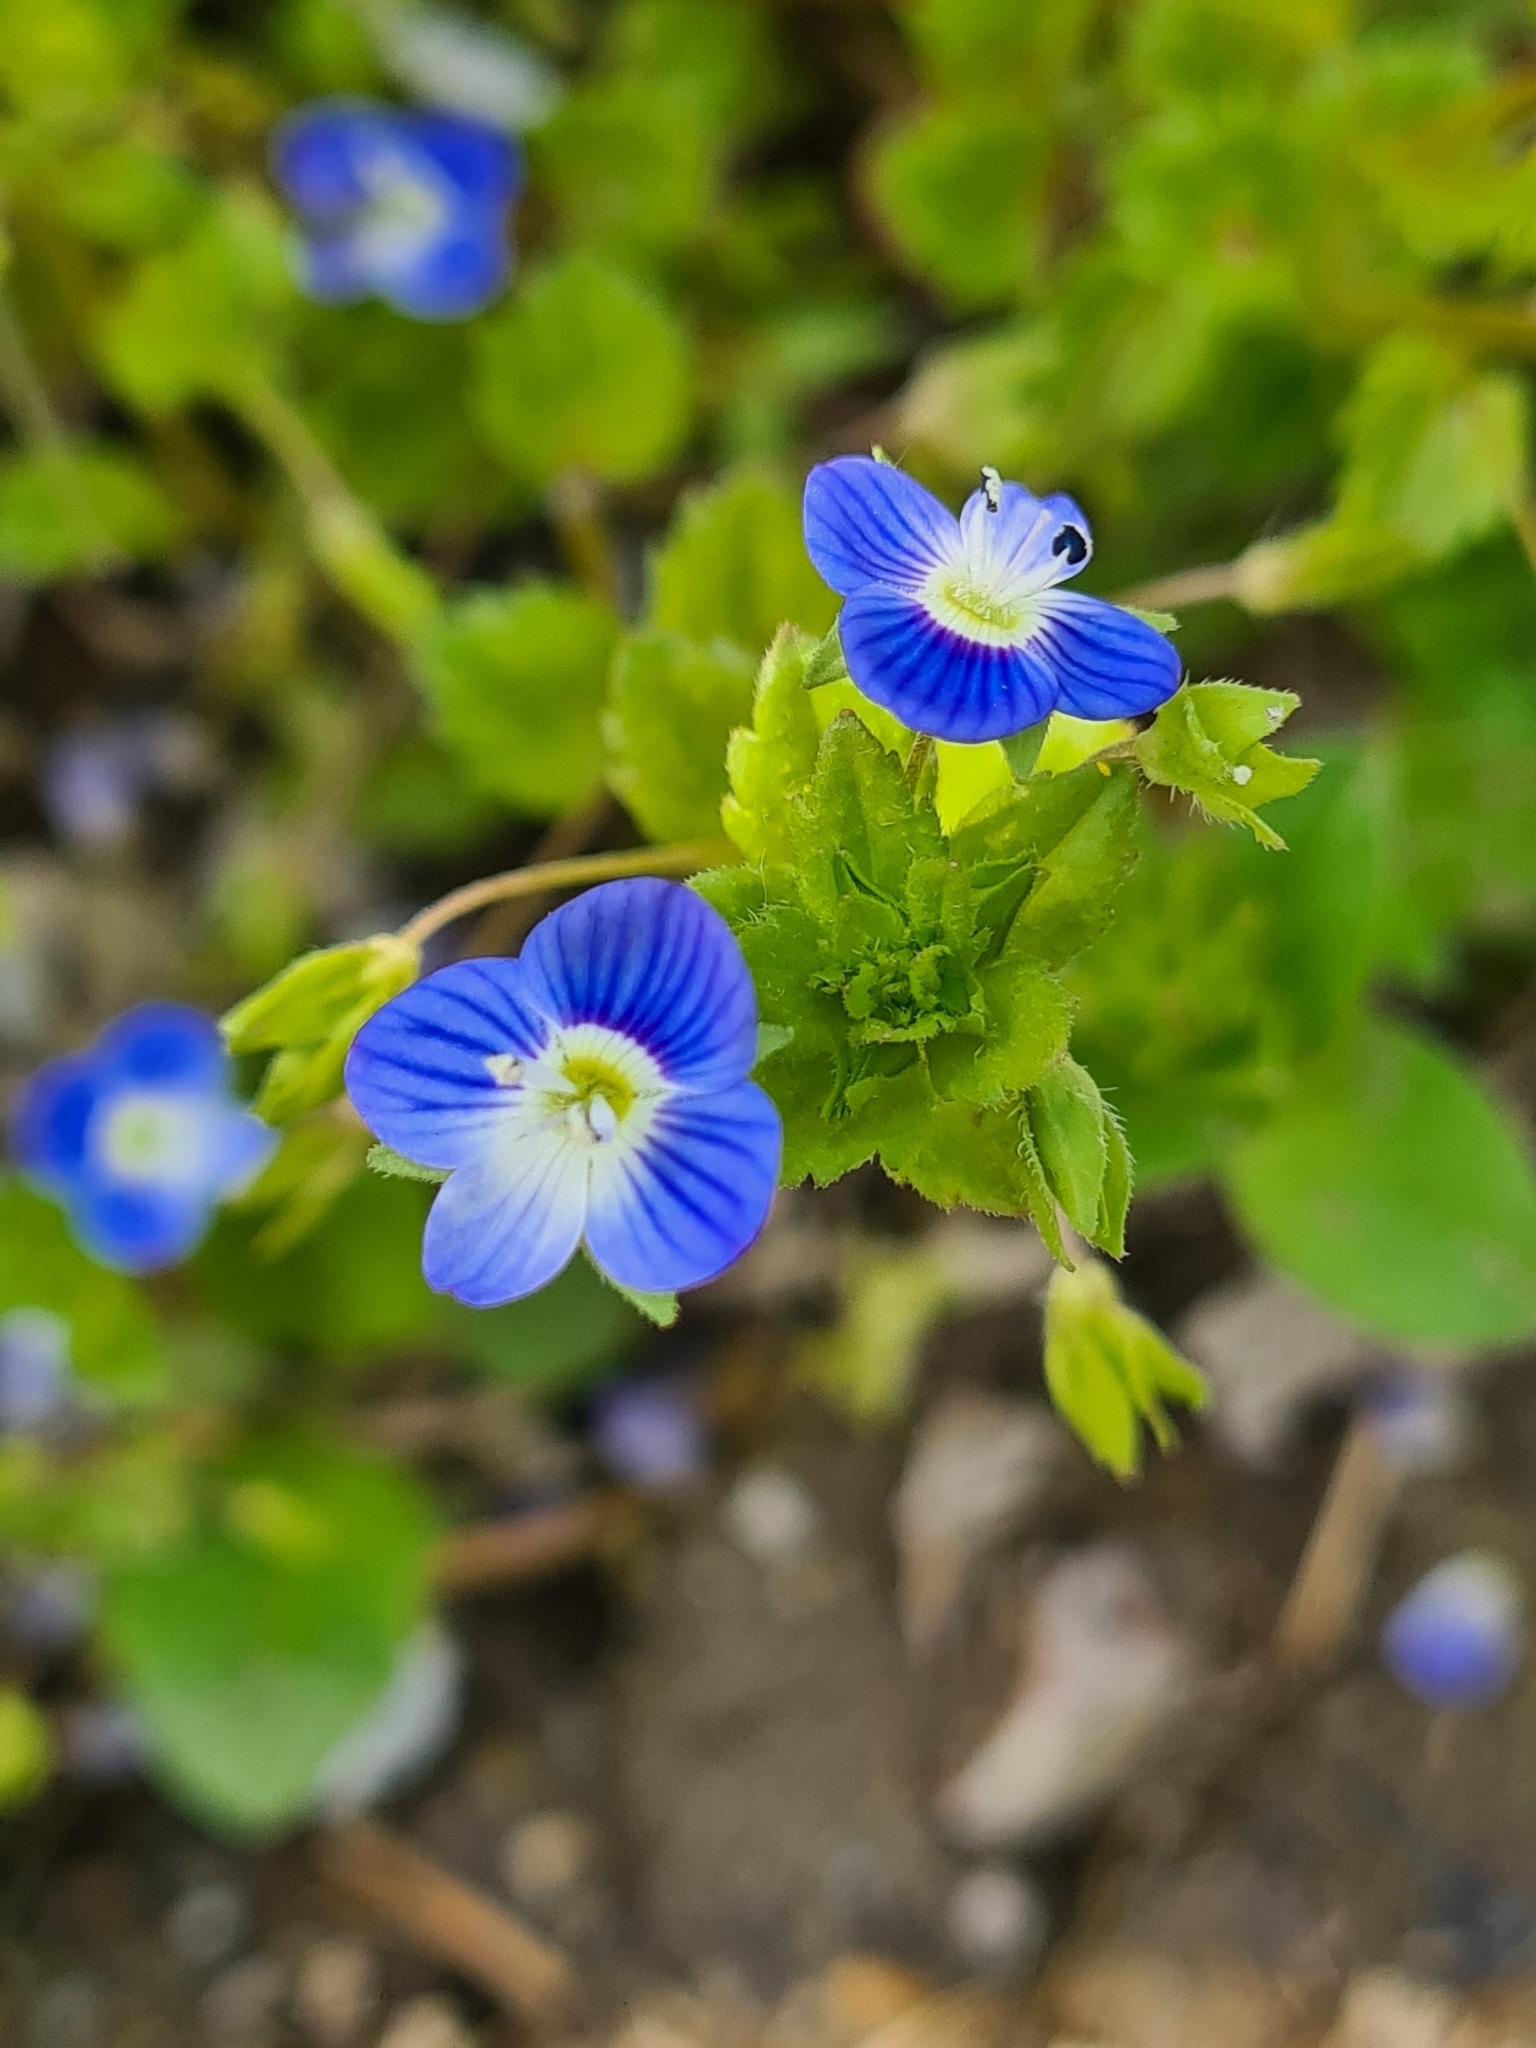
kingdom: Plantae
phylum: Tracheophyta
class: Magnoliopsida
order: Lamiales
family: Plantaginaceae
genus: Veronica
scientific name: Veronica persica
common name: Common field-speedwell
